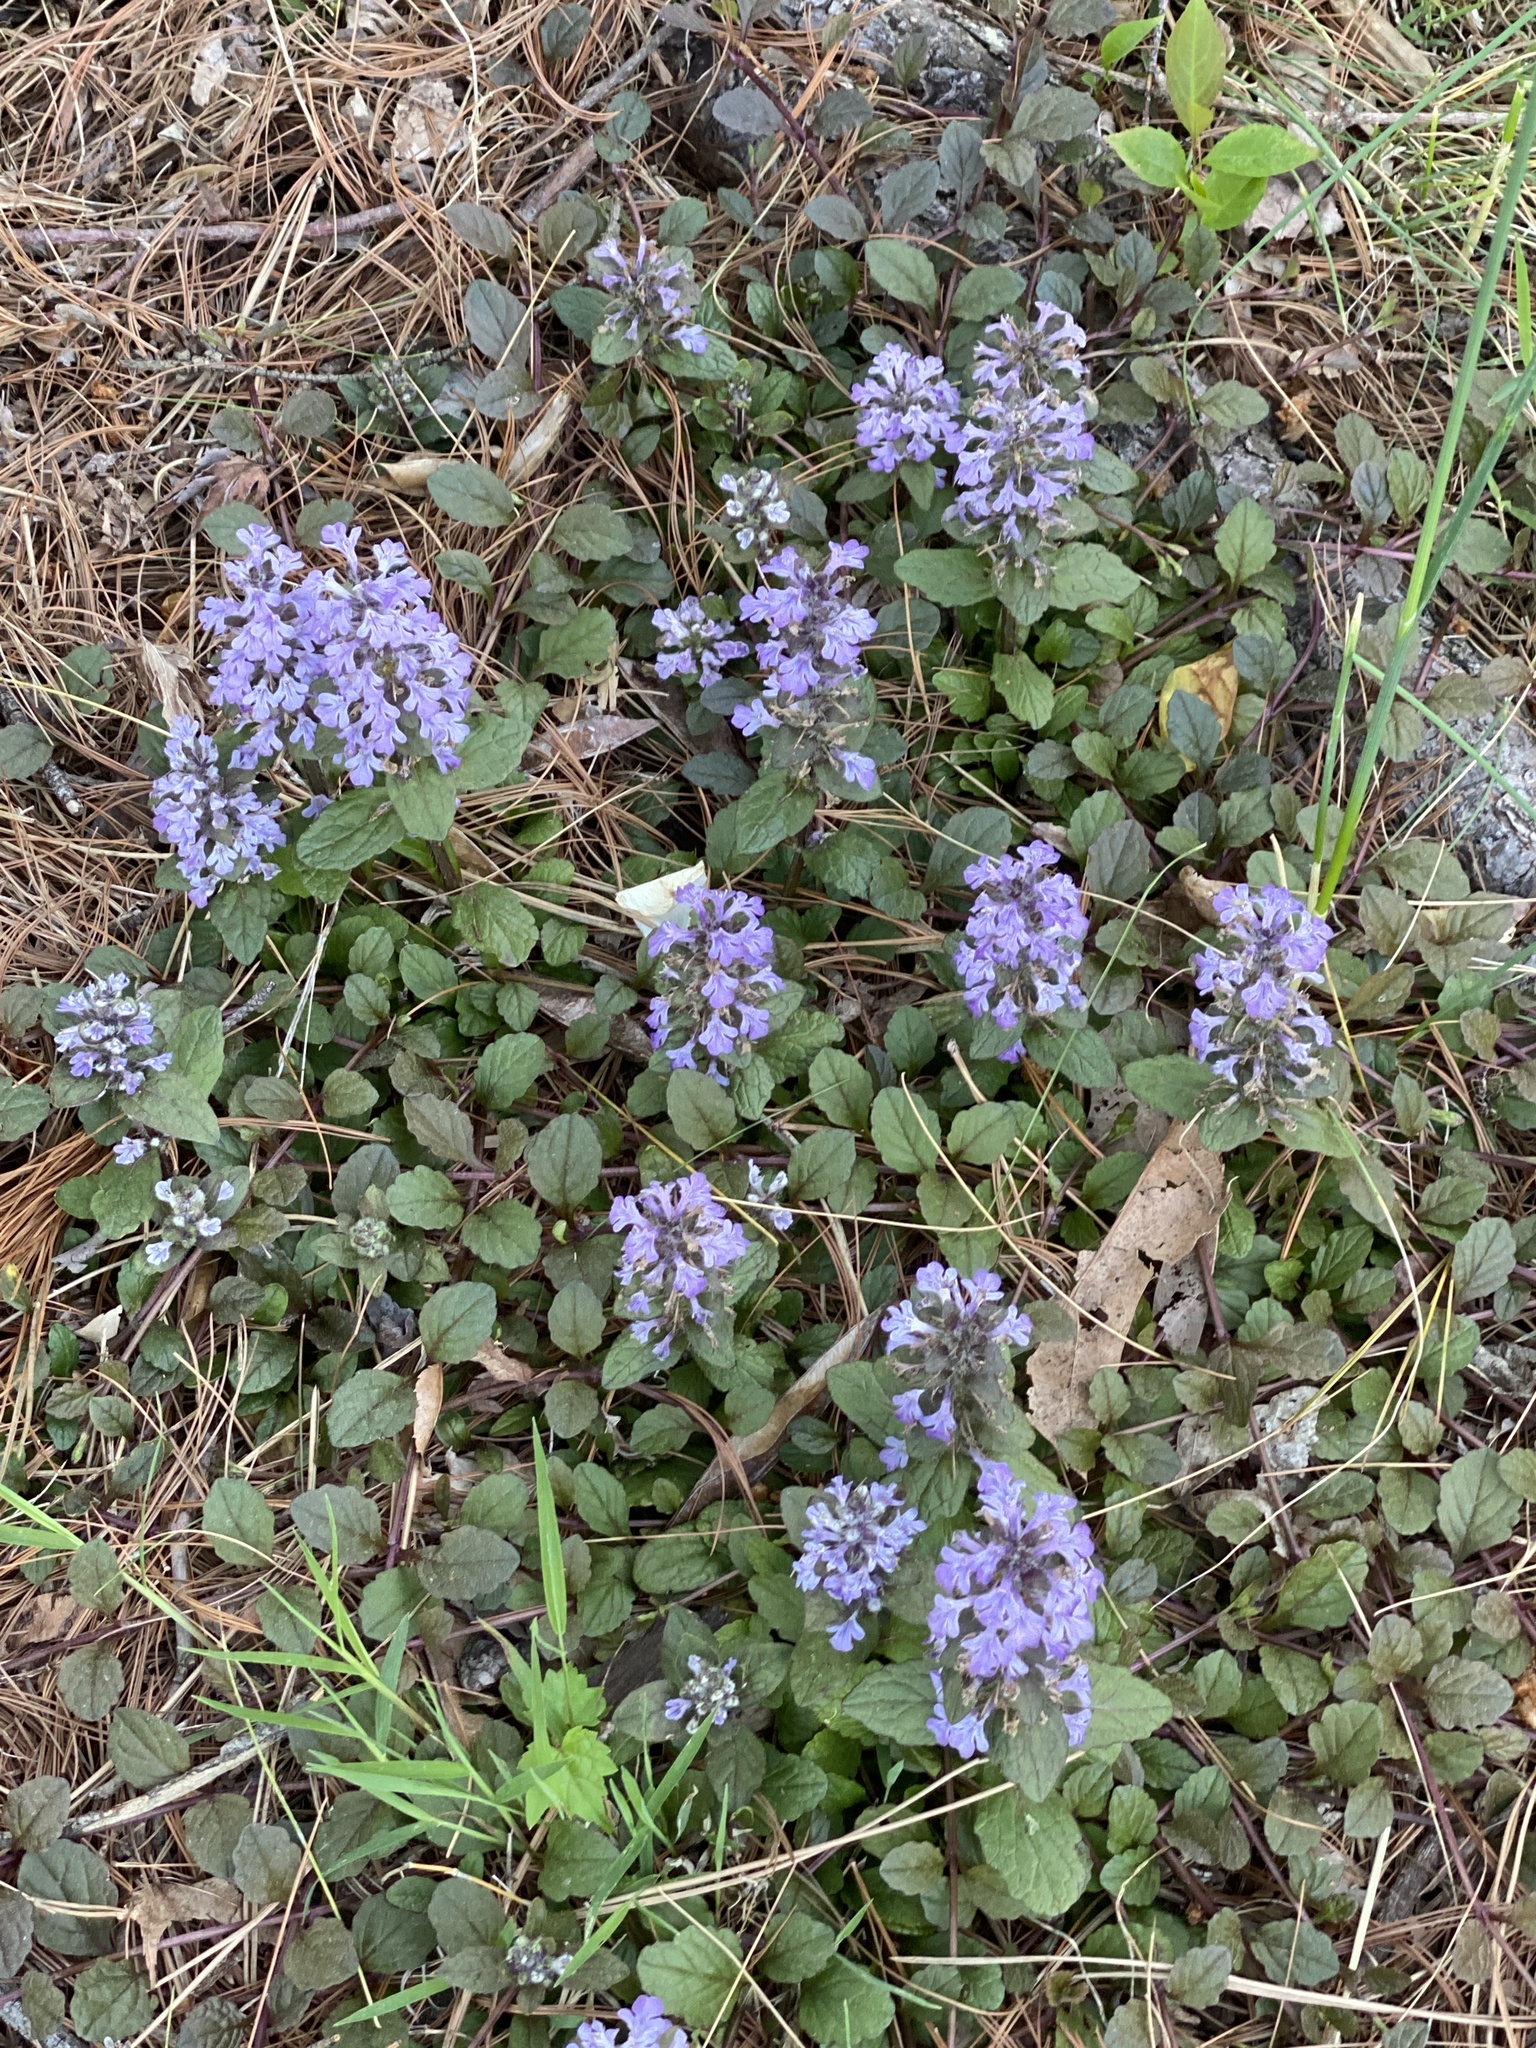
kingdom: Plantae
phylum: Tracheophyta
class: Magnoliopsida
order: Lamiales
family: Lamiaceae
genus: Ajuga
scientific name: Ajuga reptans
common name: Bugle
